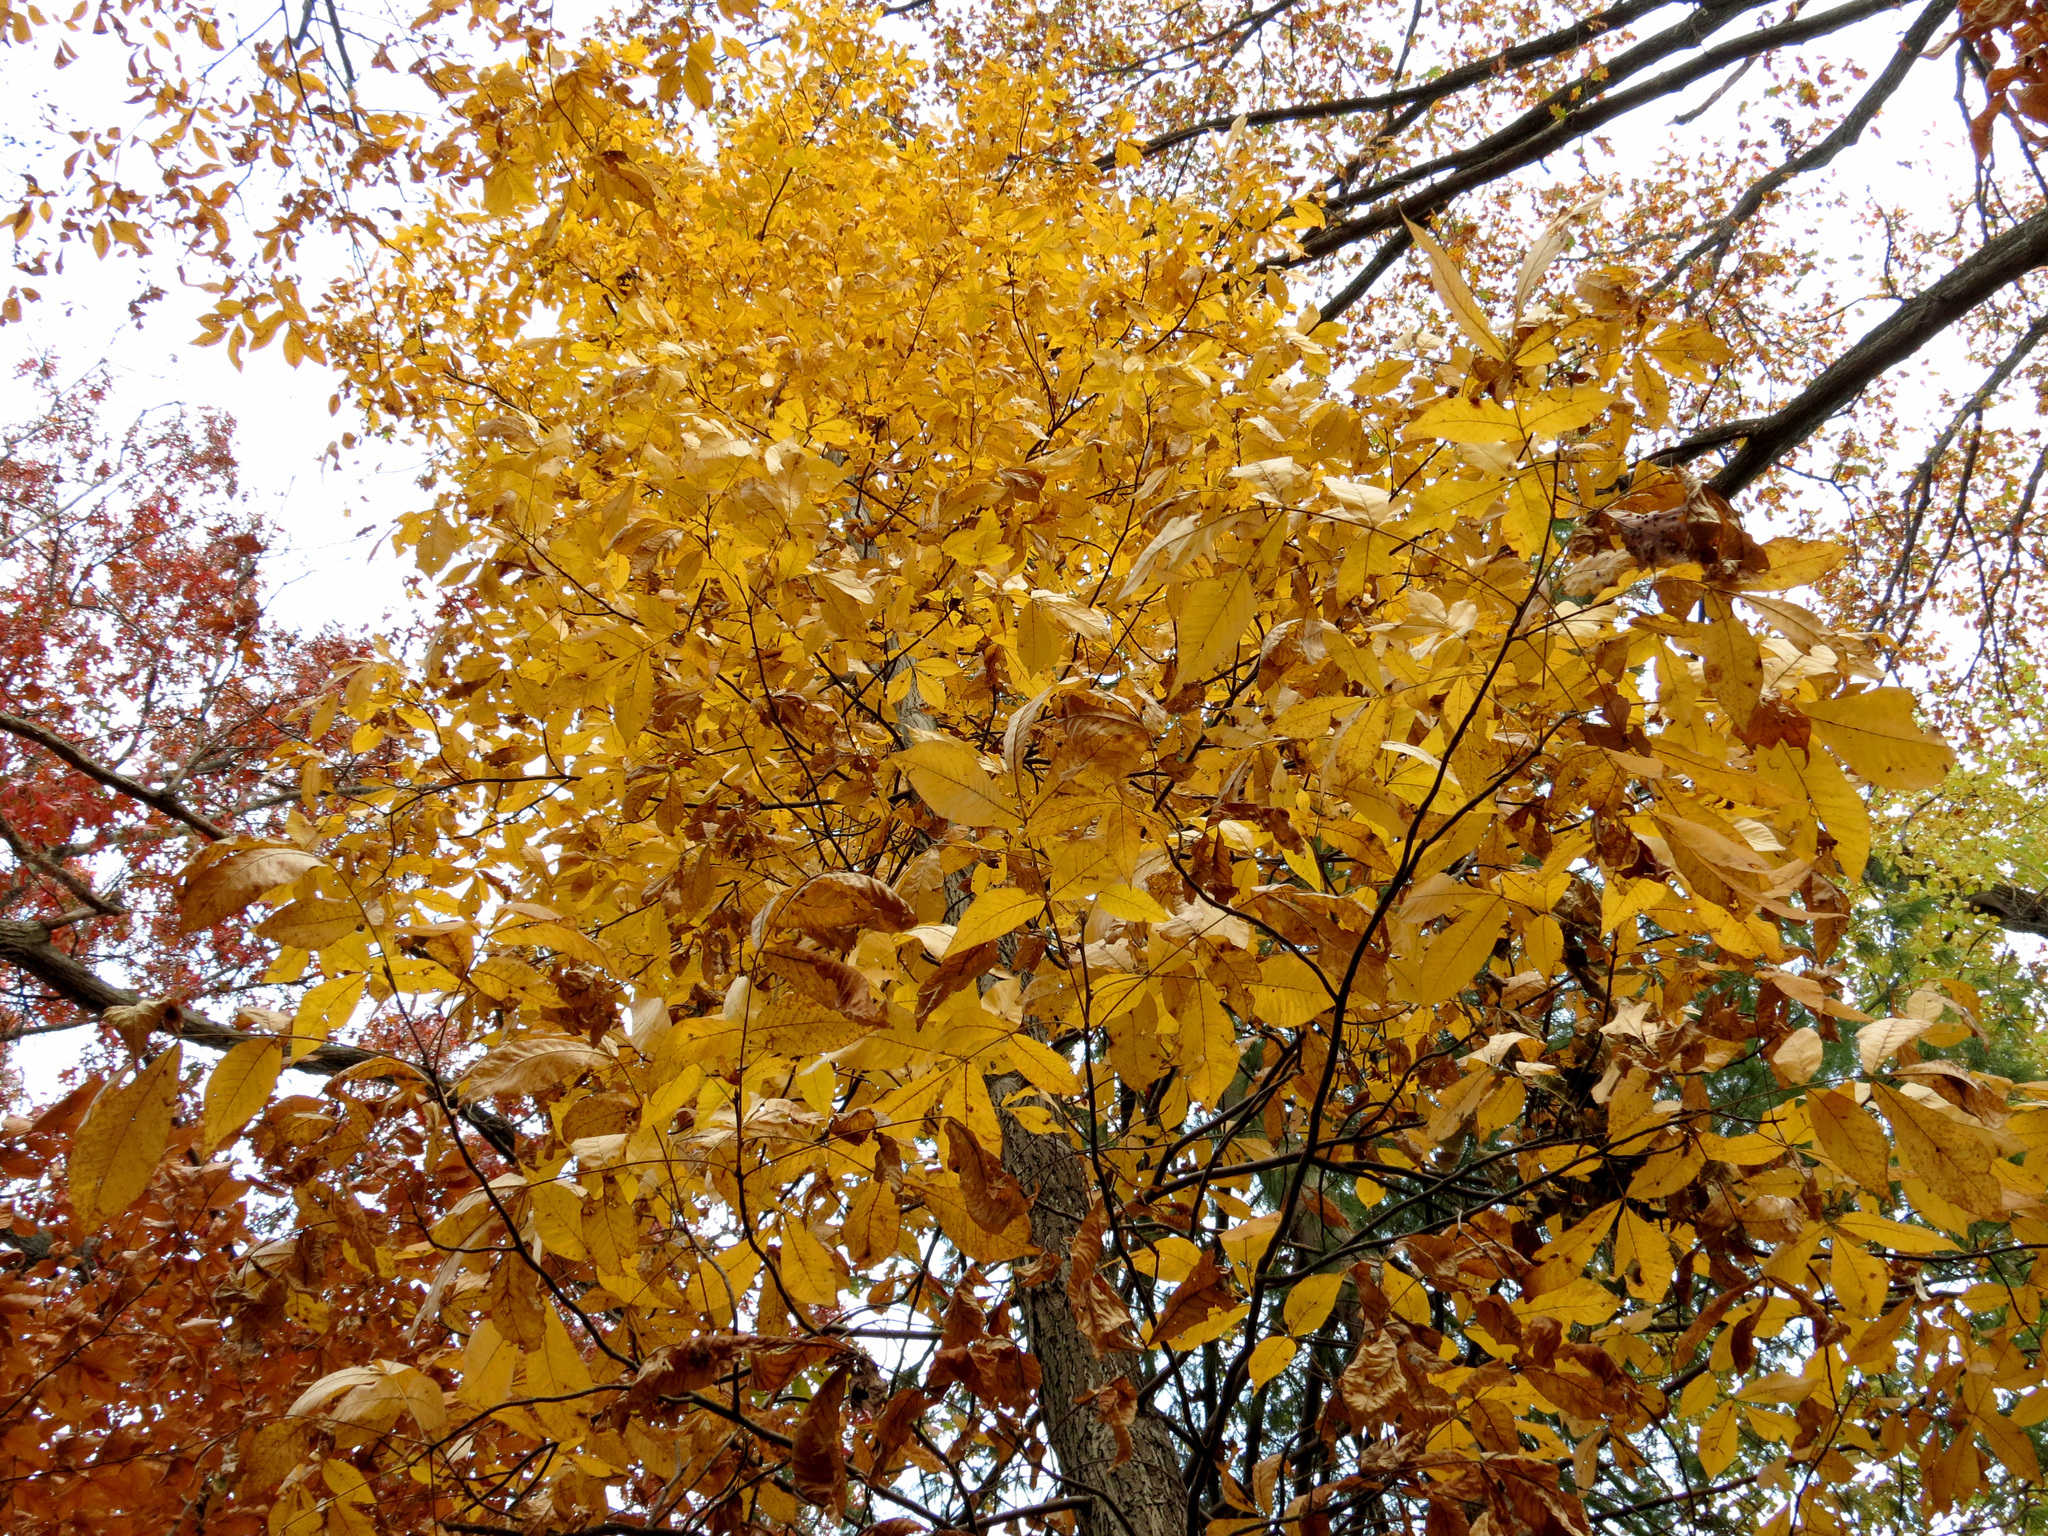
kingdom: Plantae
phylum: Tracheophyta
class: Magnoliopsida
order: Fagales
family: Juglandaceae
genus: Carya
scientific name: Carya glabra
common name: Pignut hickory
